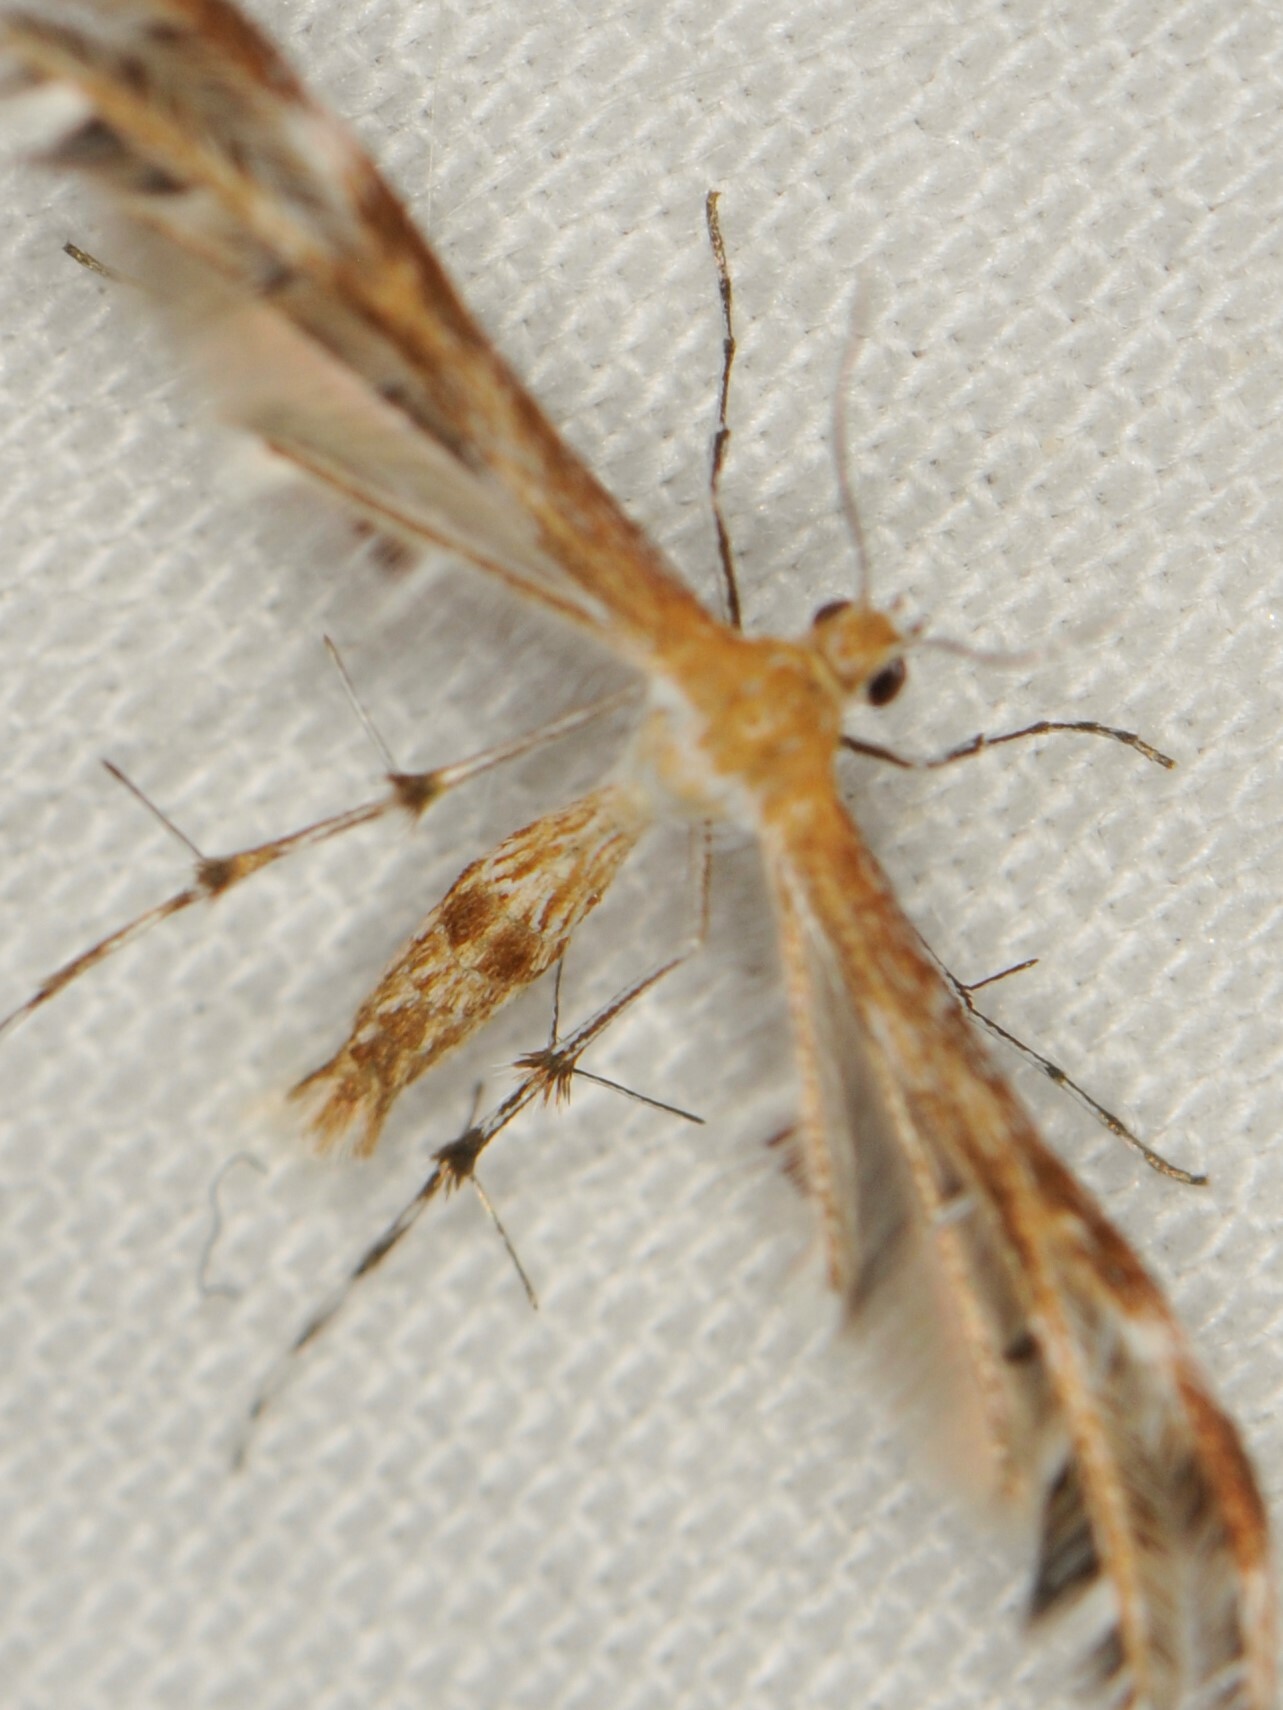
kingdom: Animalia
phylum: Arthropoda
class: Insecta
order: Lepidoptera
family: Pterophoridae
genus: Dejongia
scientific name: Dejongia californicus
